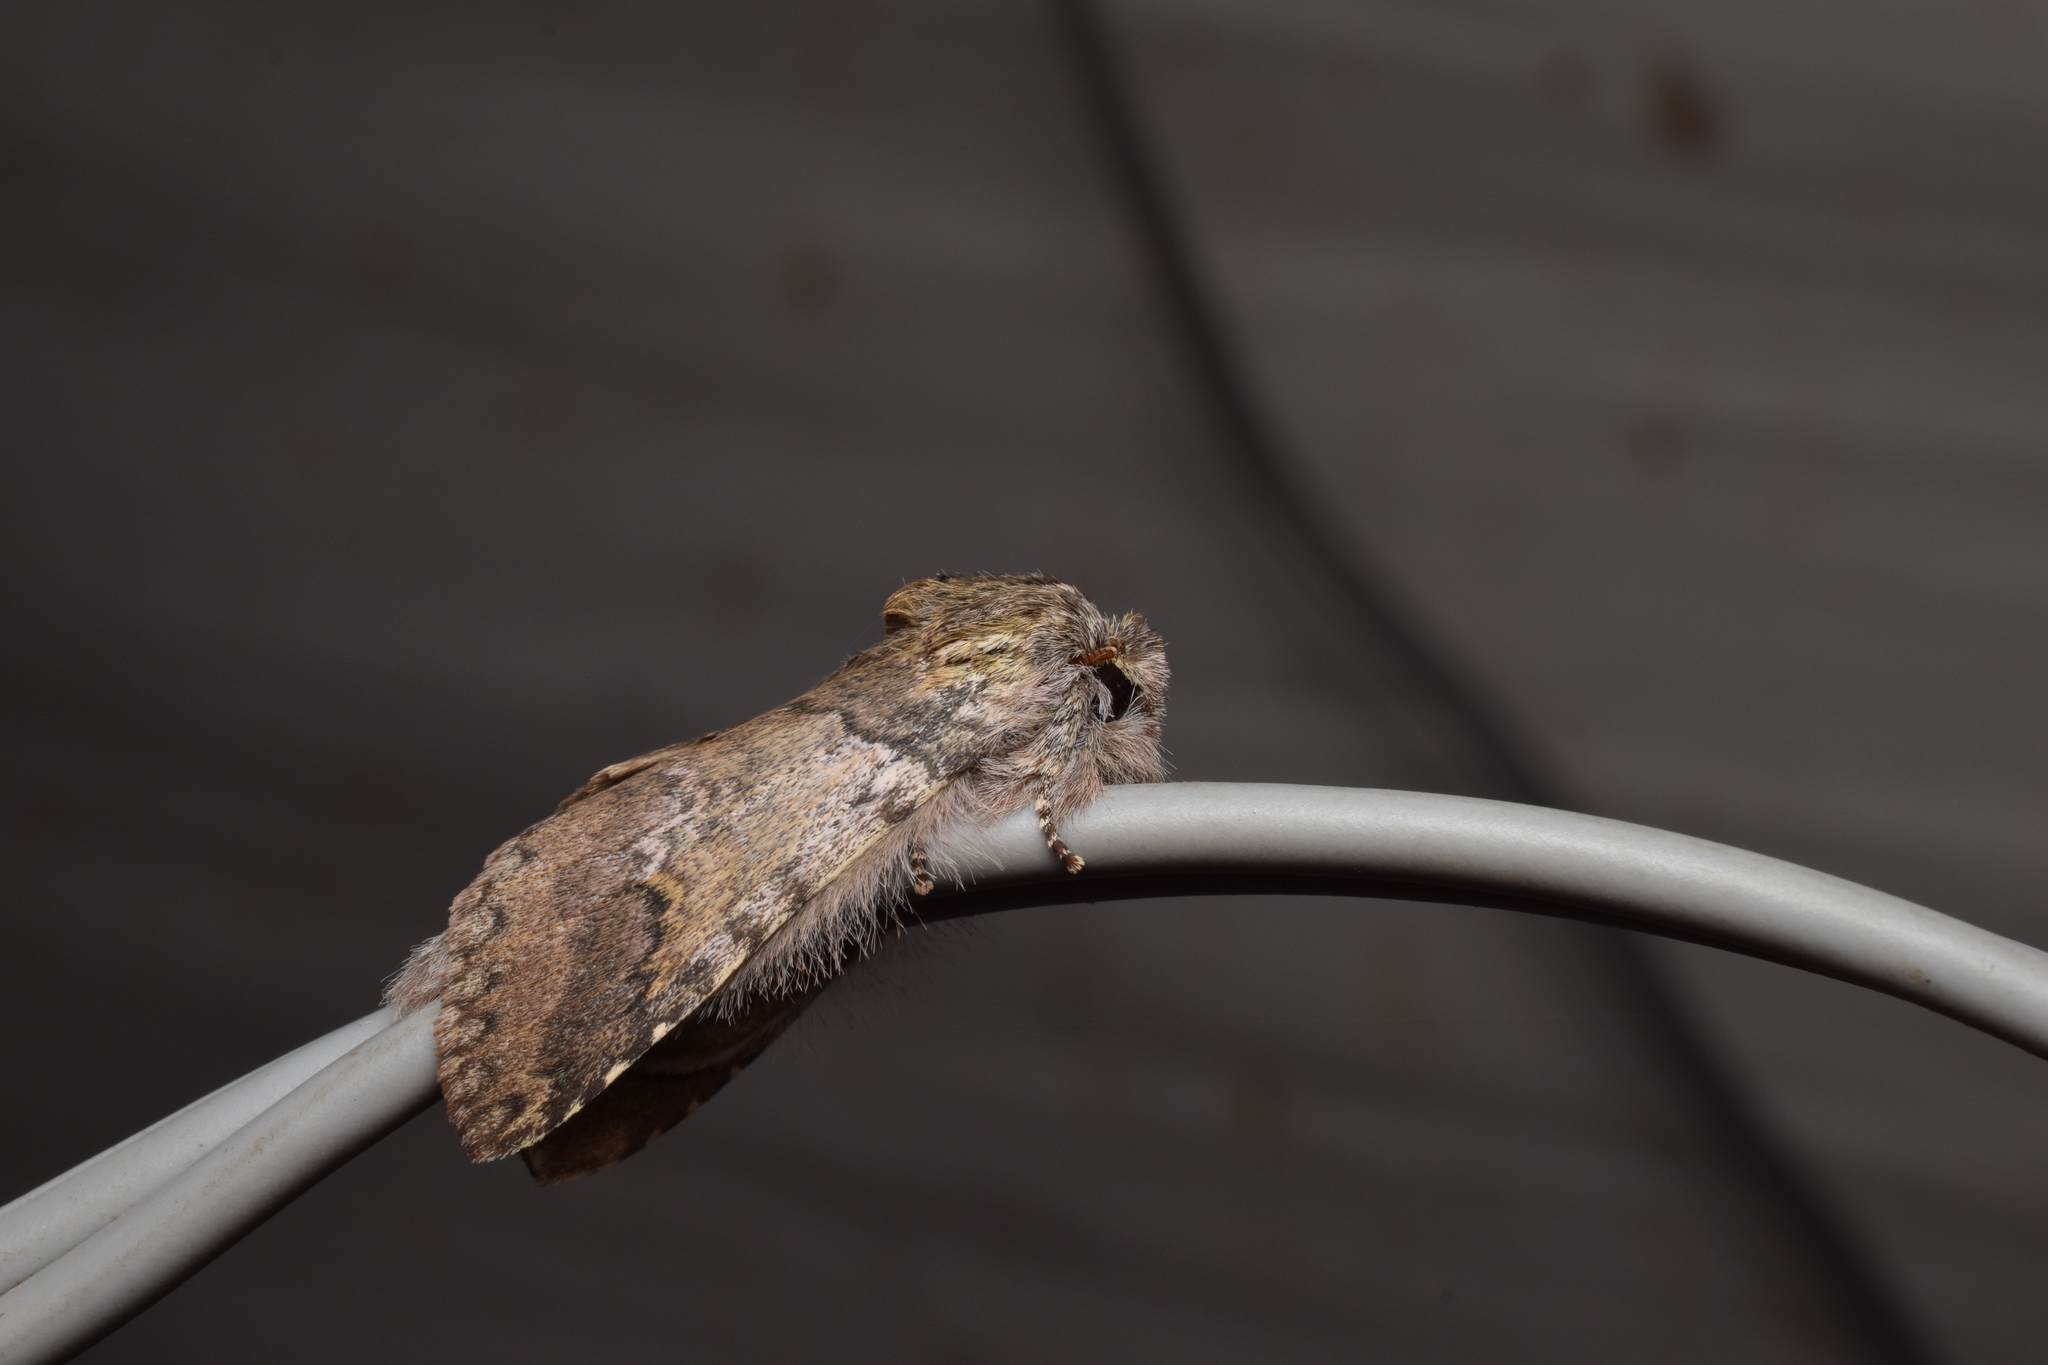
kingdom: Animalia
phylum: Arthropoda
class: Insecta
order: Lepidoptera
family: Notodontidae
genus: Disparia
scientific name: Disparia diluta
